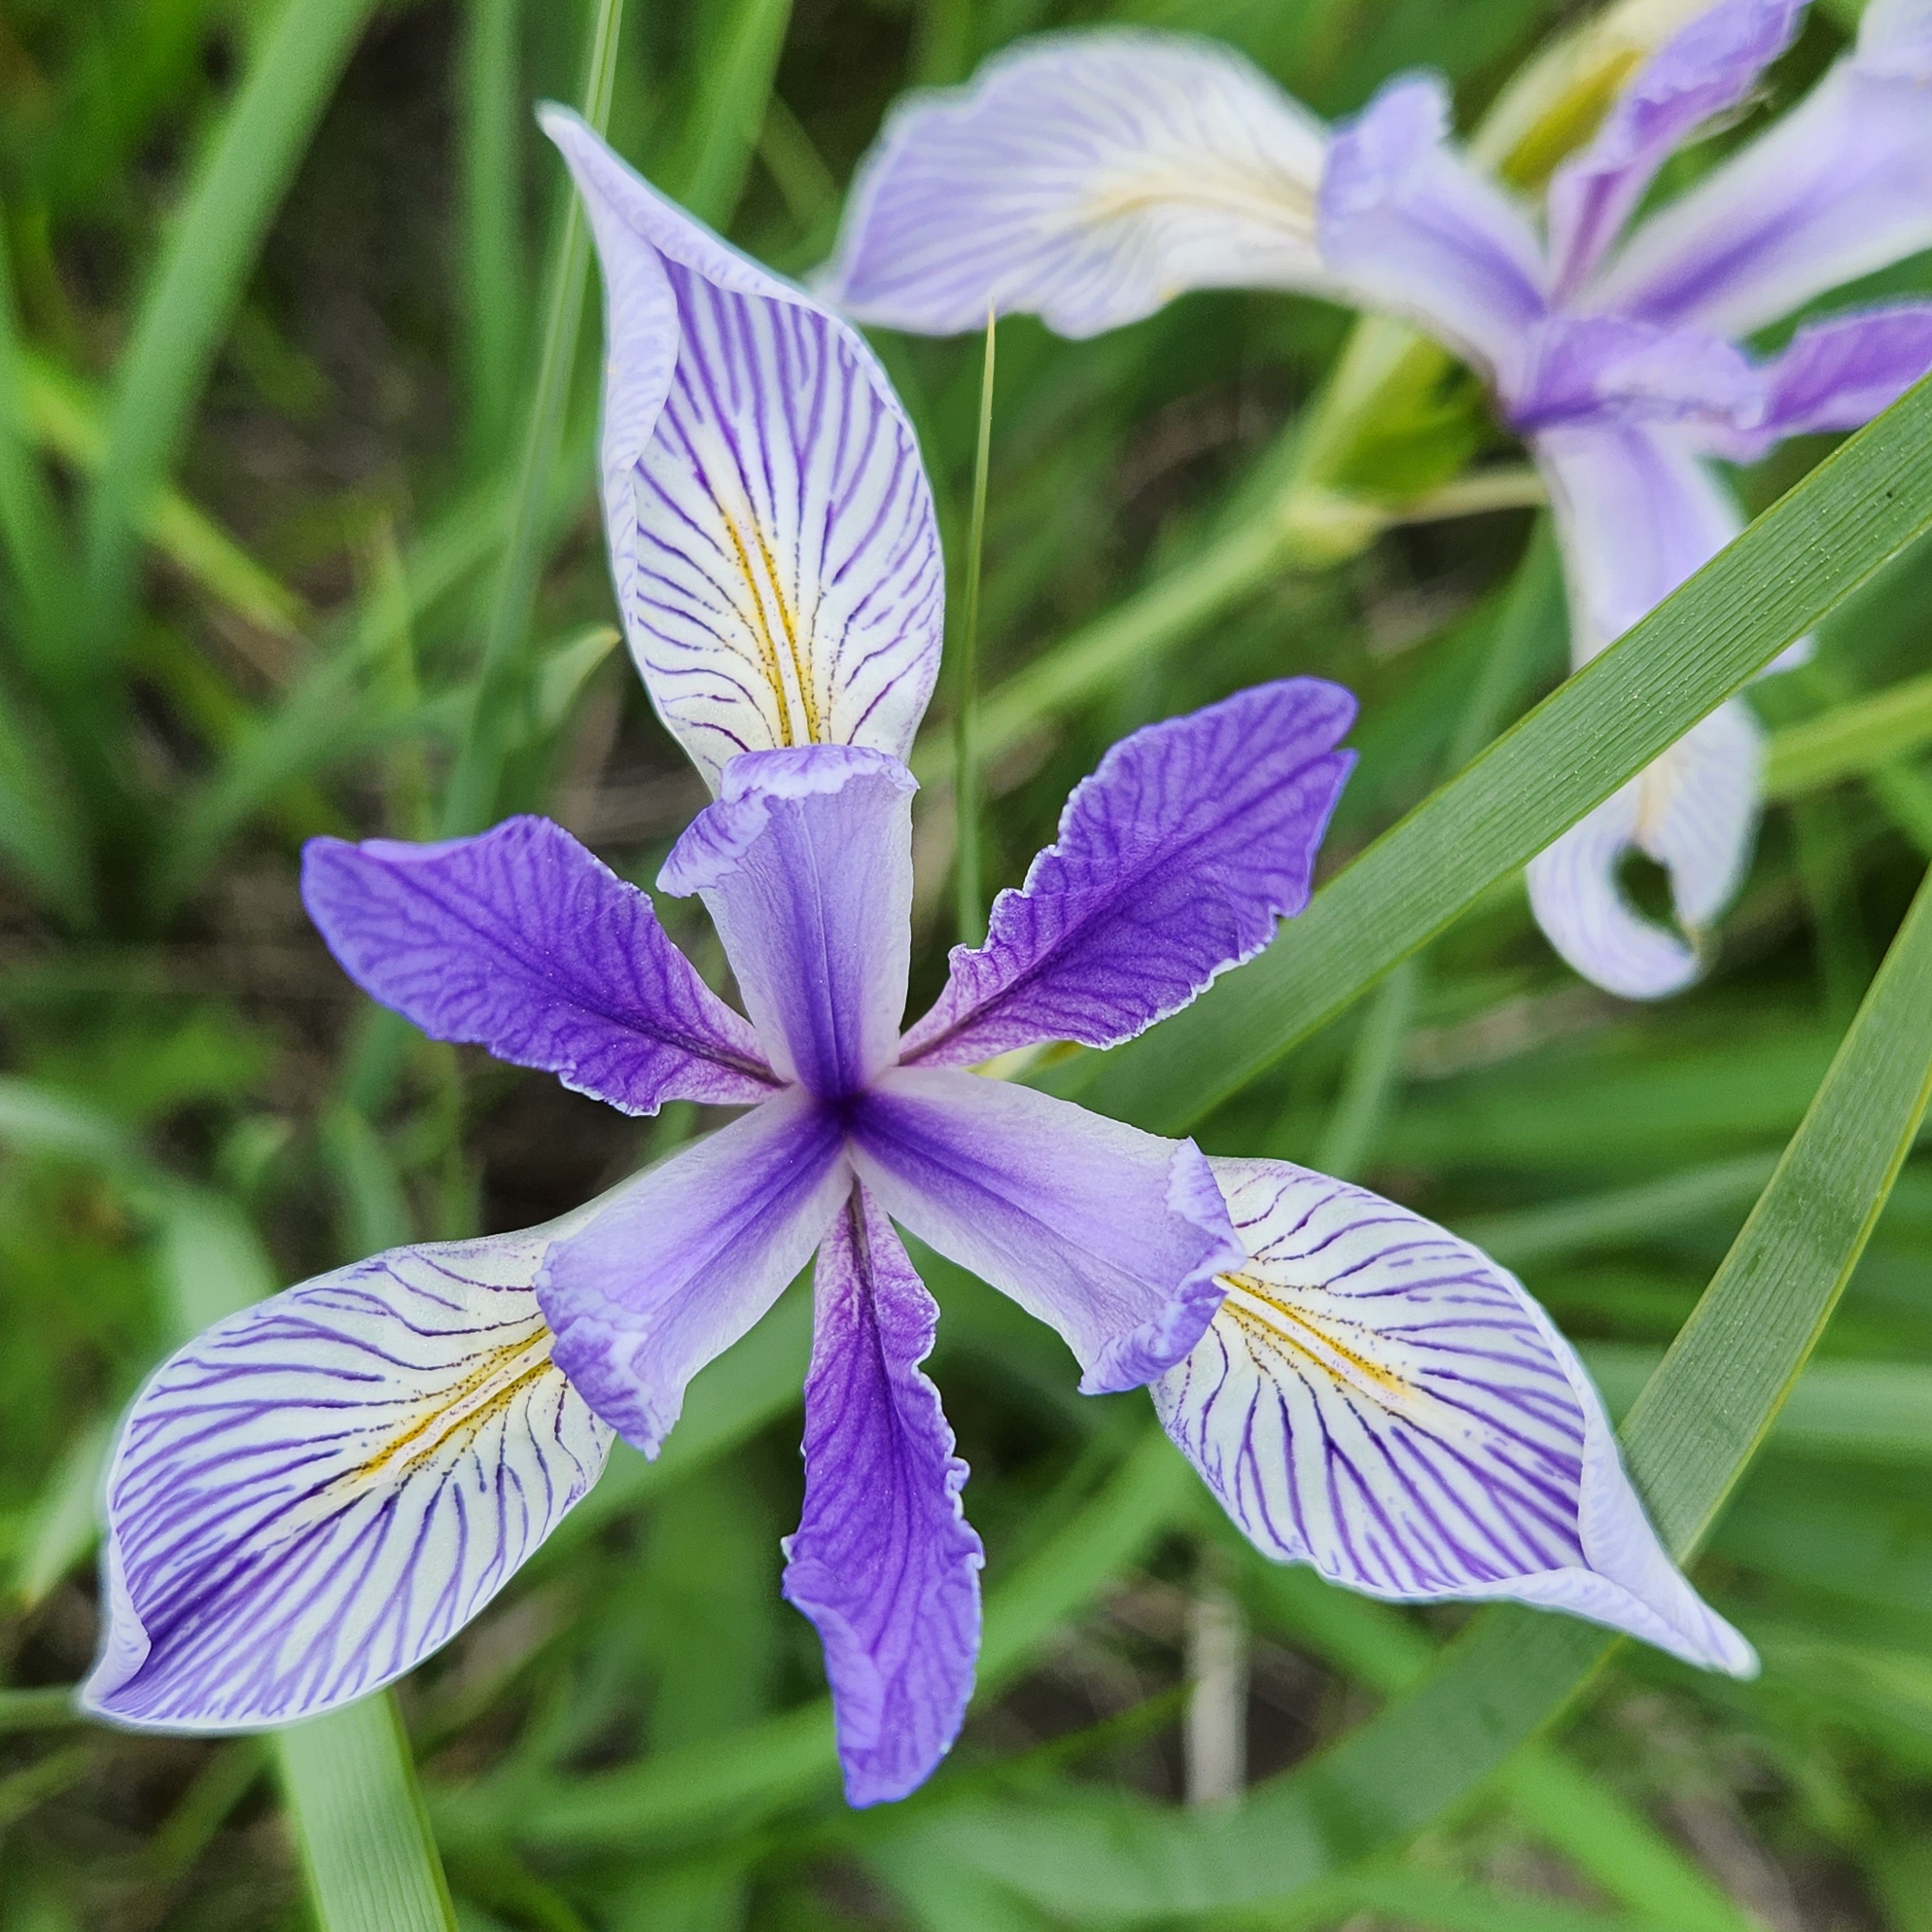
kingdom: Plantae
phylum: Tracheophyta
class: Liliopsida
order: Asparagales
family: Iridaceae
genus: Iris
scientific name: Iris missouriensis
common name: Rocky mountain iris
